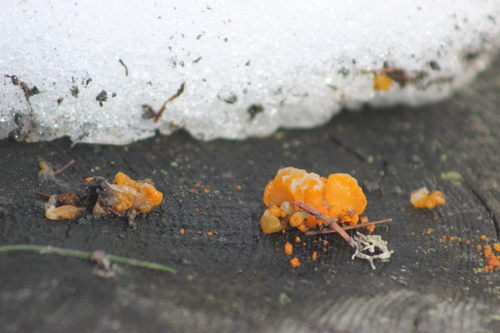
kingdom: Fungi
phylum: Basidiomycota
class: Dacrymycetes
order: Dacrymycetales
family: Dacrymycetaceae
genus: Dacrymyces
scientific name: Dacrymyces chrysospermus
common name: Orange jelly spot
